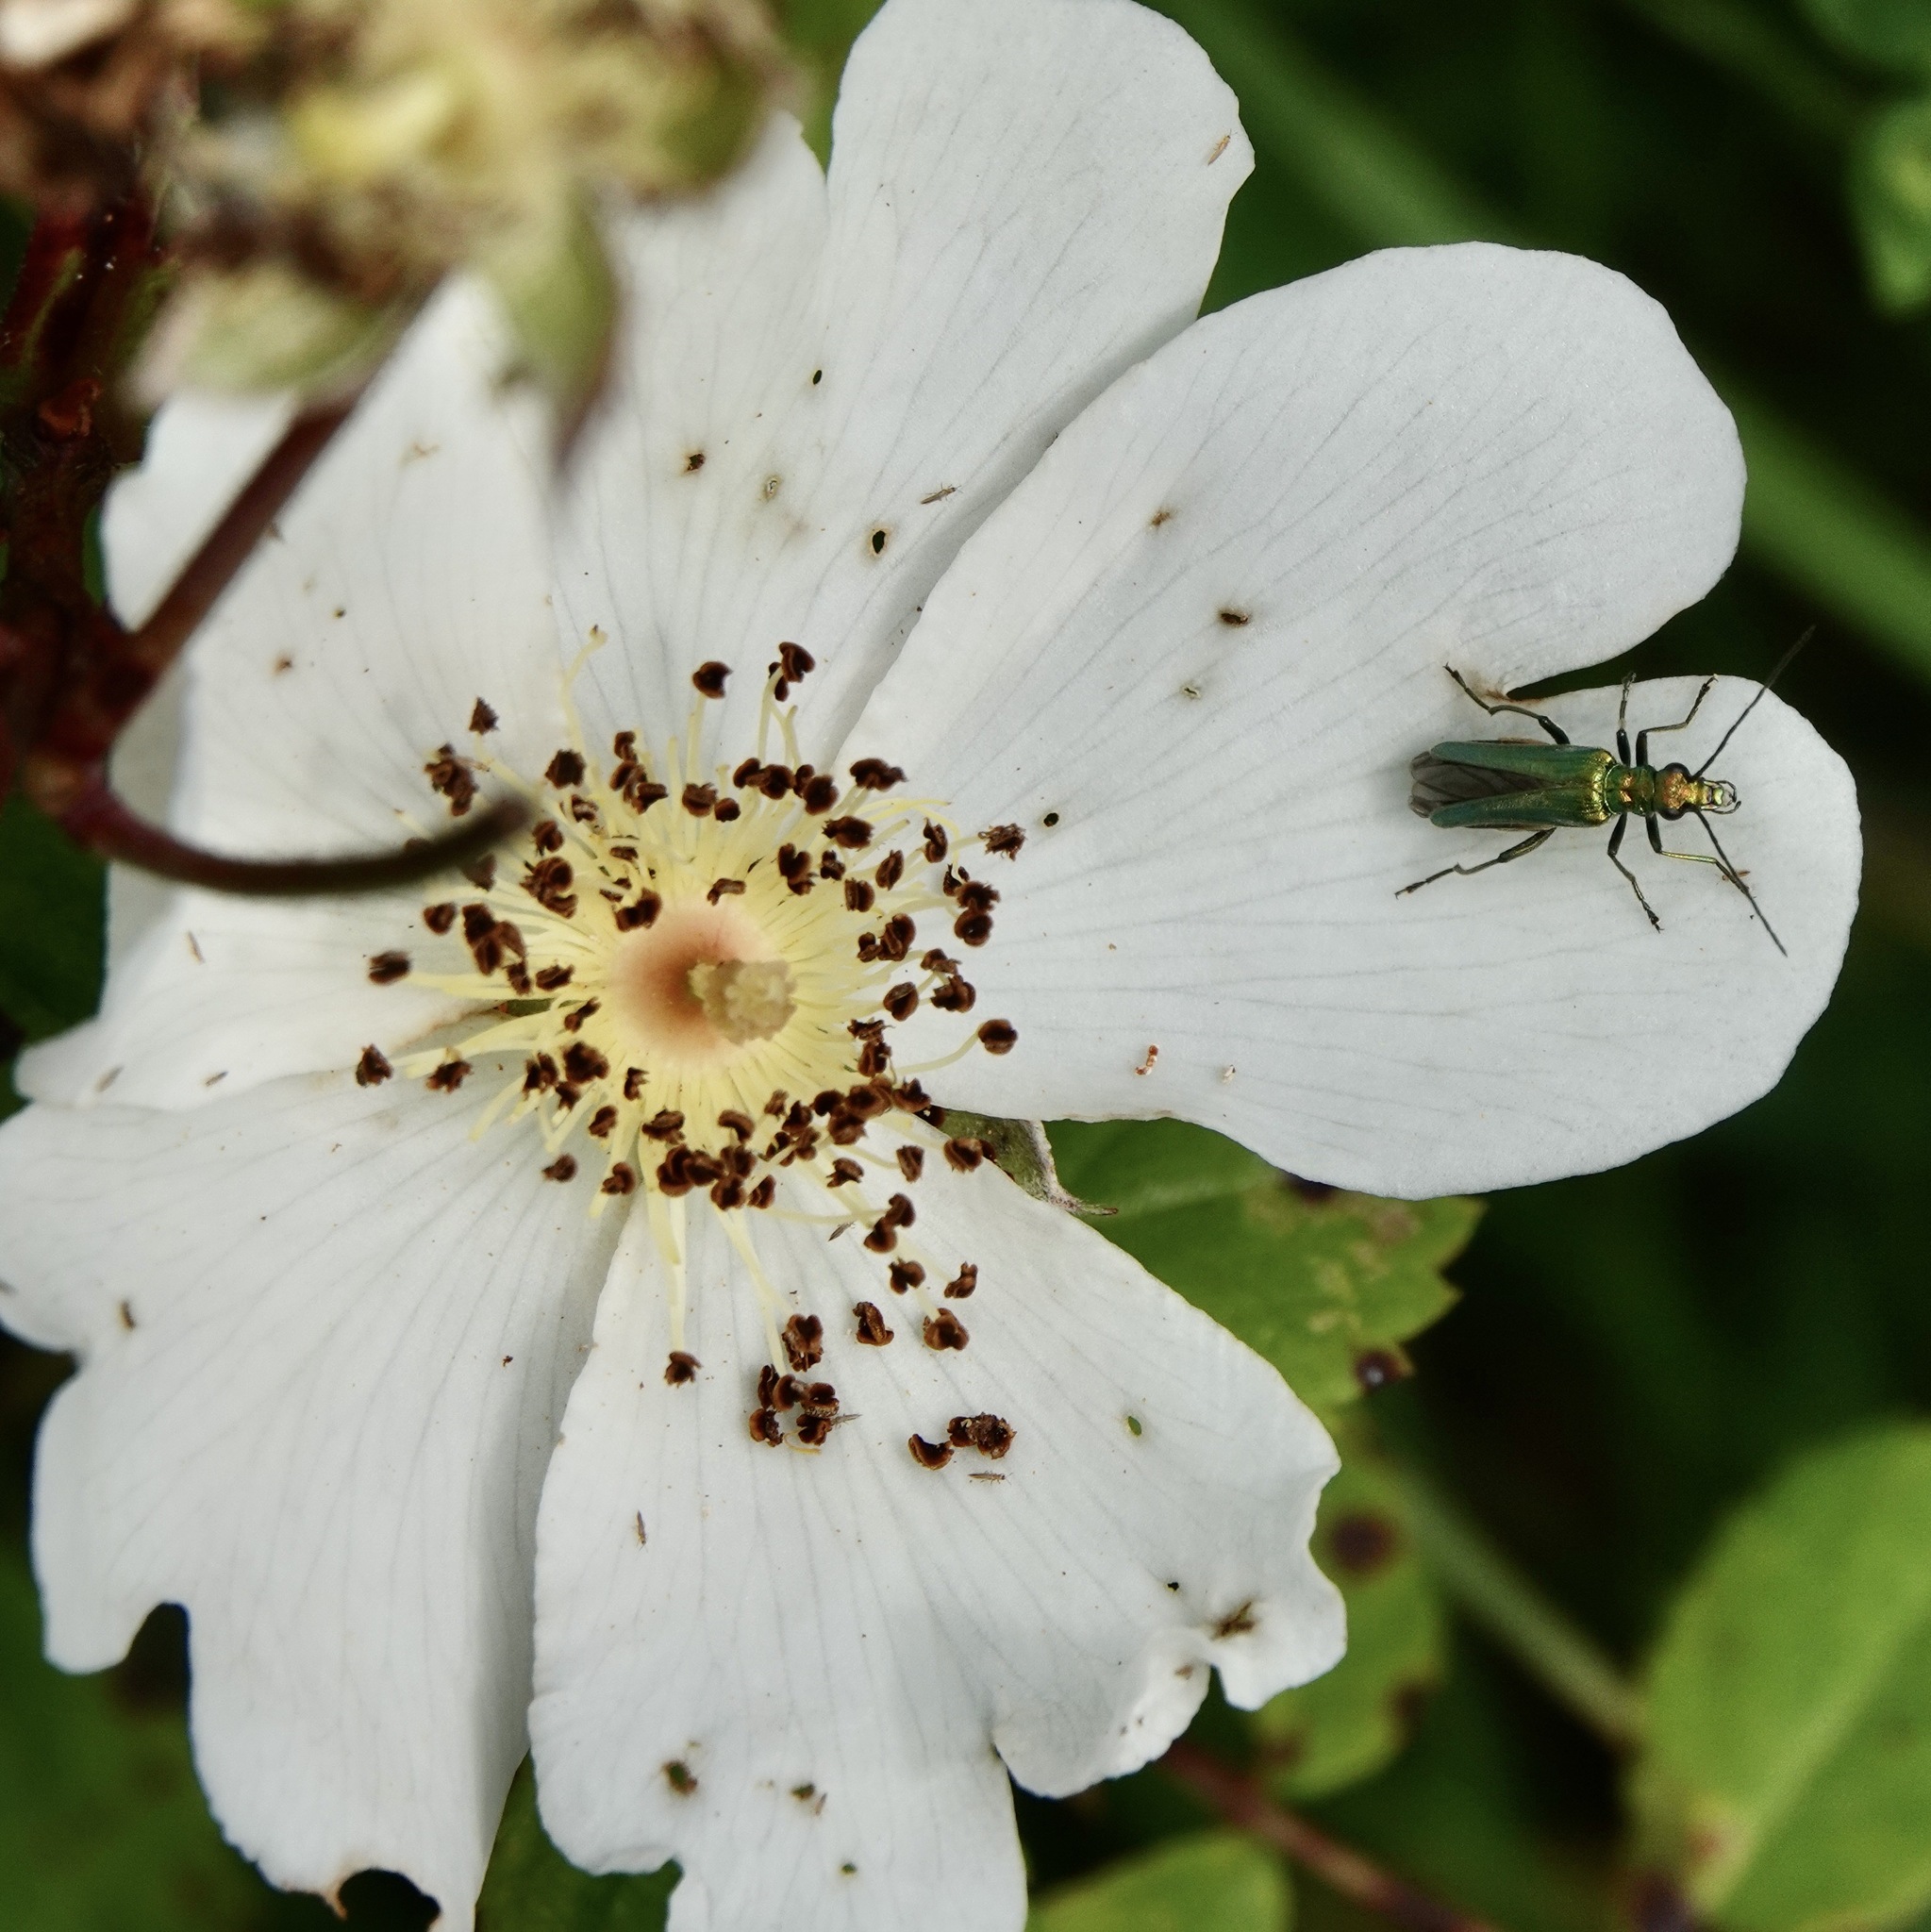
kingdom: Animalia
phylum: Arthropoda
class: Insecta
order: Coleoptera
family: Oedemeridae
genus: Oedemera
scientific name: Oedemera nobilis
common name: Swollen-thighed beetle
